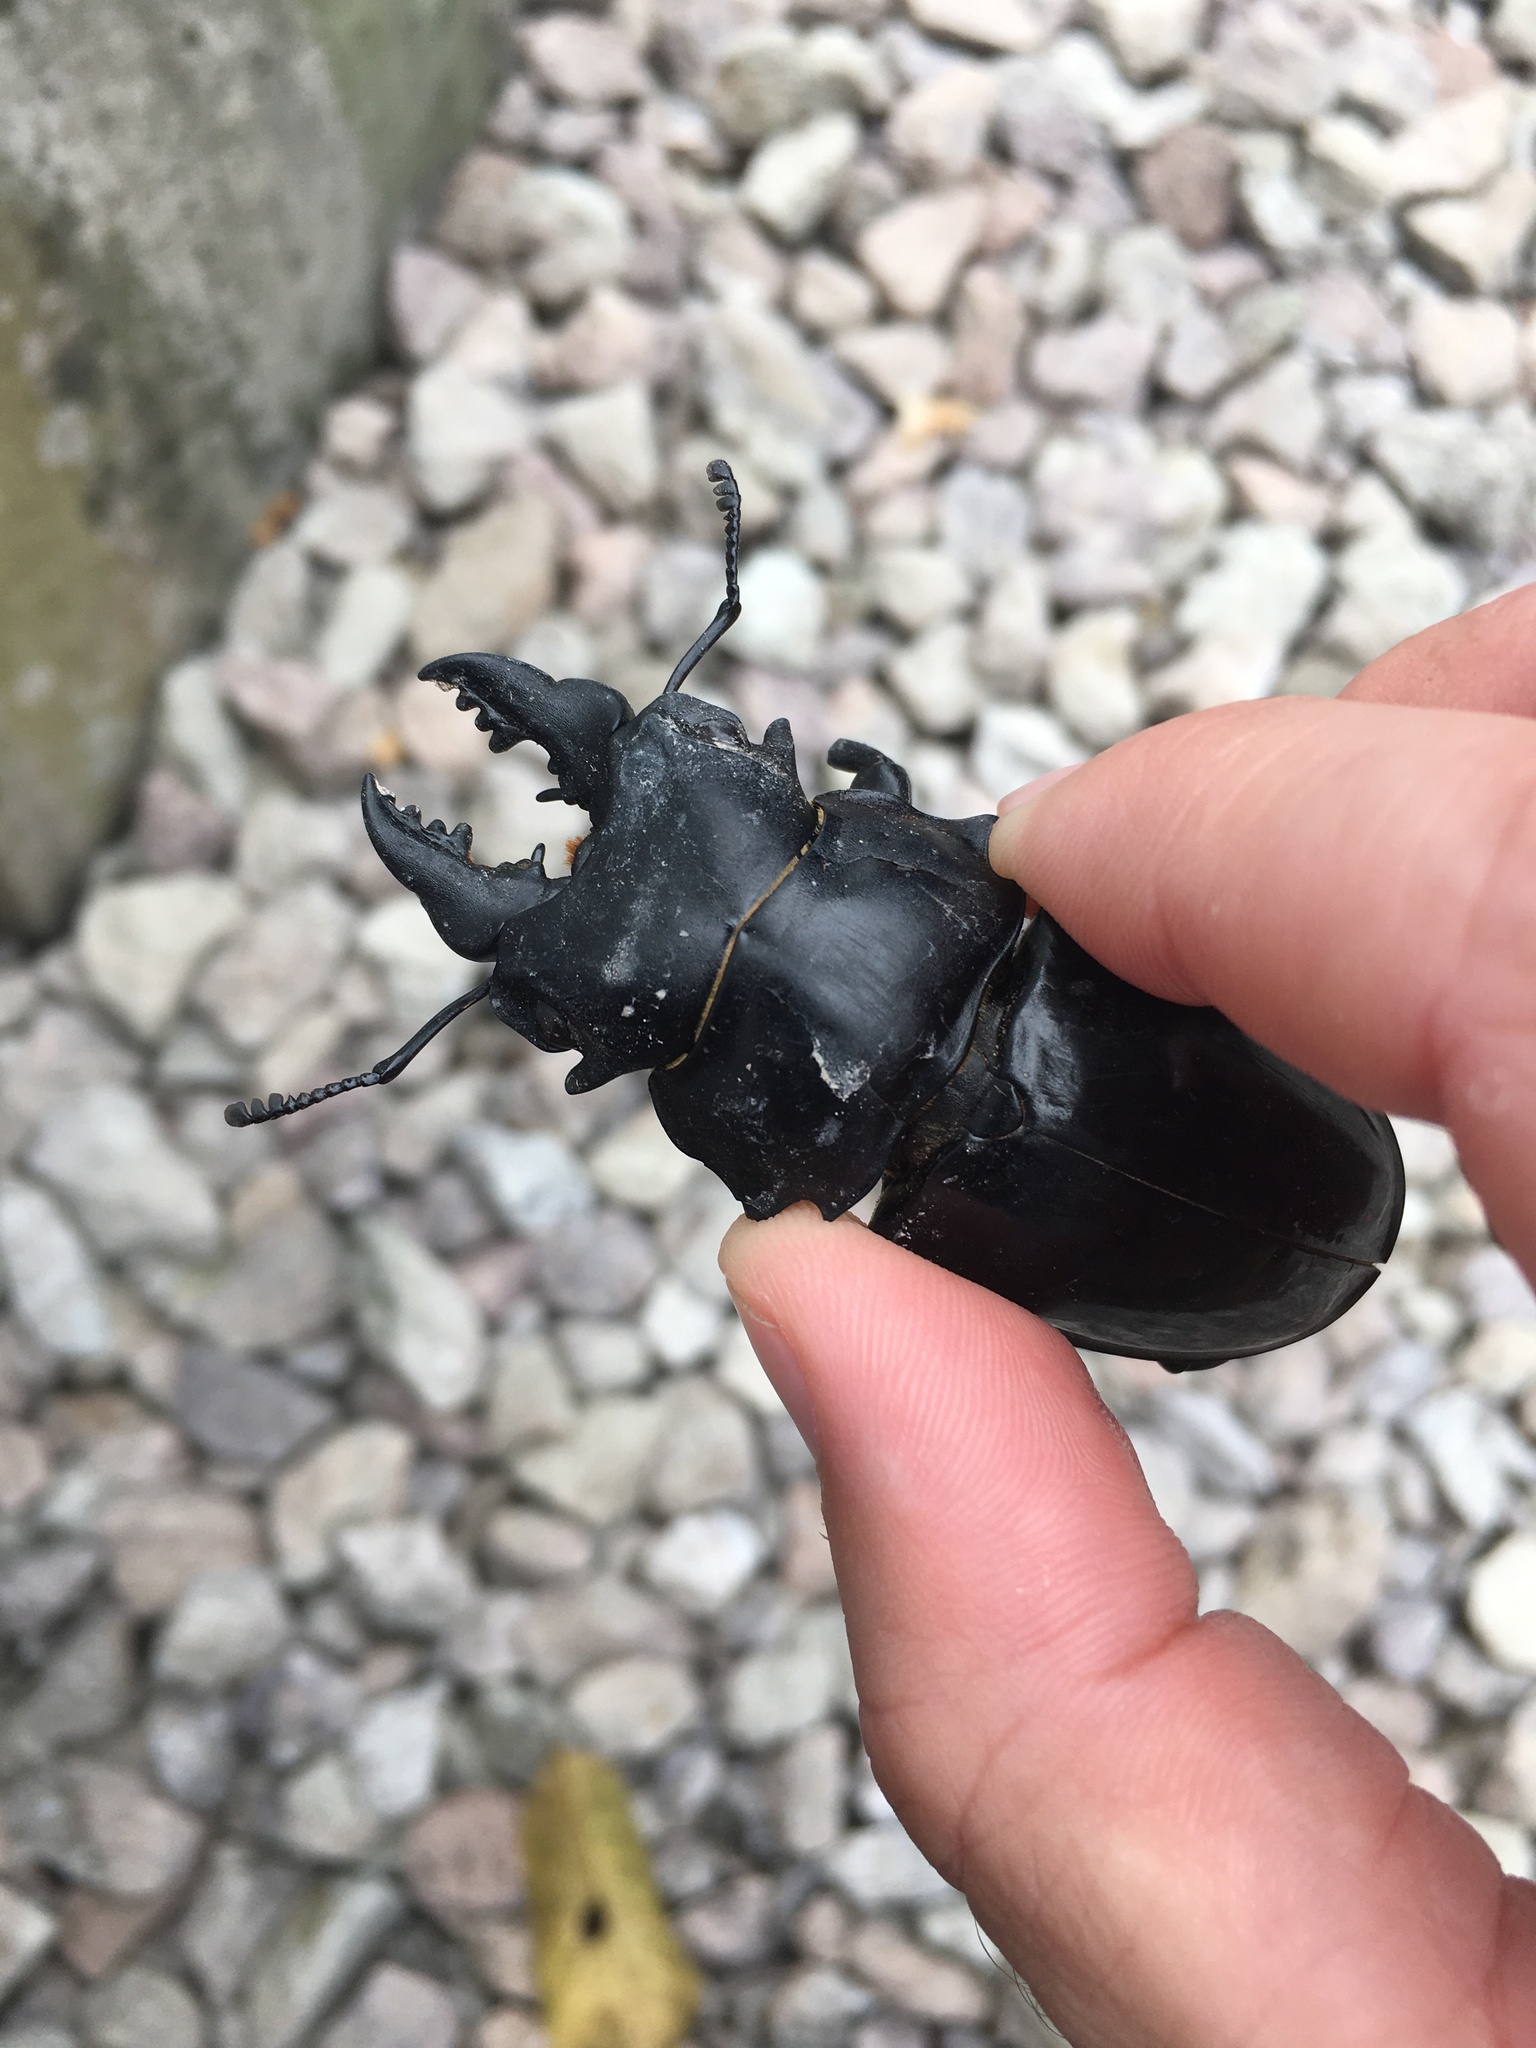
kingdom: Animalia
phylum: Arthropoda
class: Insecta
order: Coleoptera
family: Lucanidae
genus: Odontolabis
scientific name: Odontolabis siva
